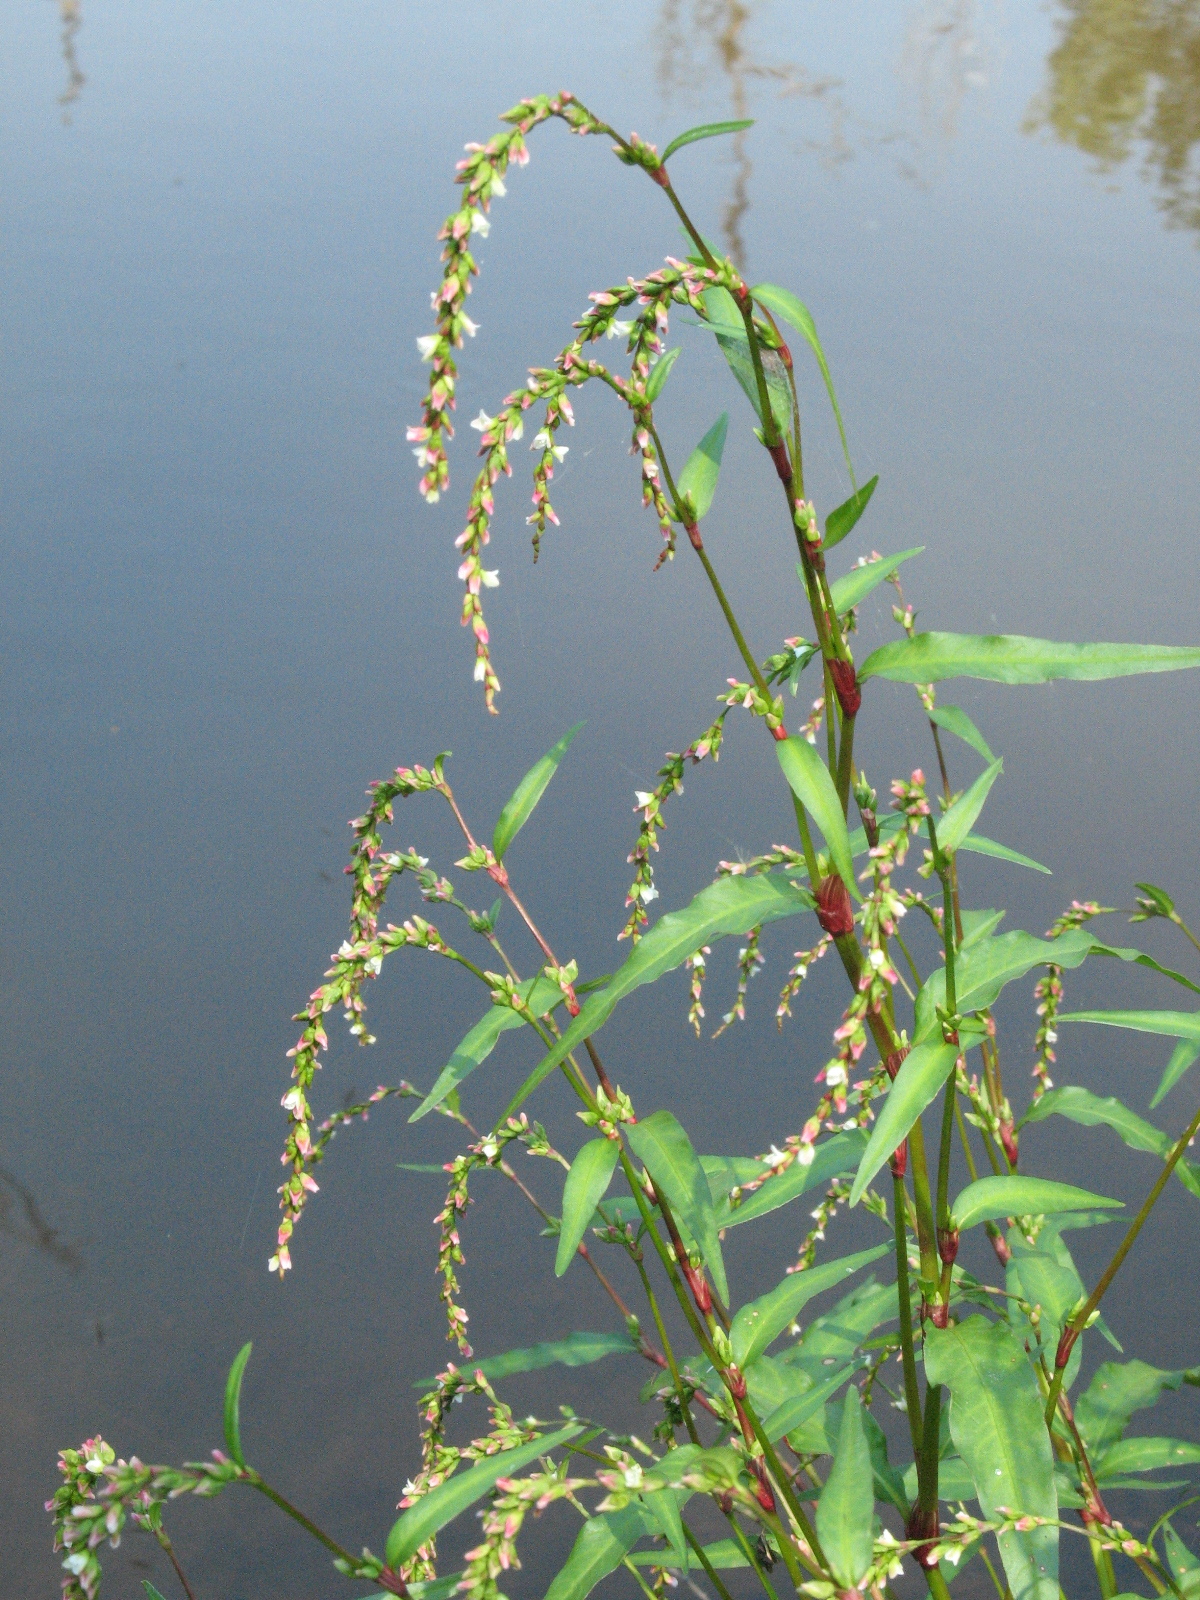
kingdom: Plantae
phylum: Tracheophyta
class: Magnoliopsida
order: Caryophyllales
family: Polygonaceae
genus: Persicaria
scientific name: Persicaria hydropiper
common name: Water-pepper
